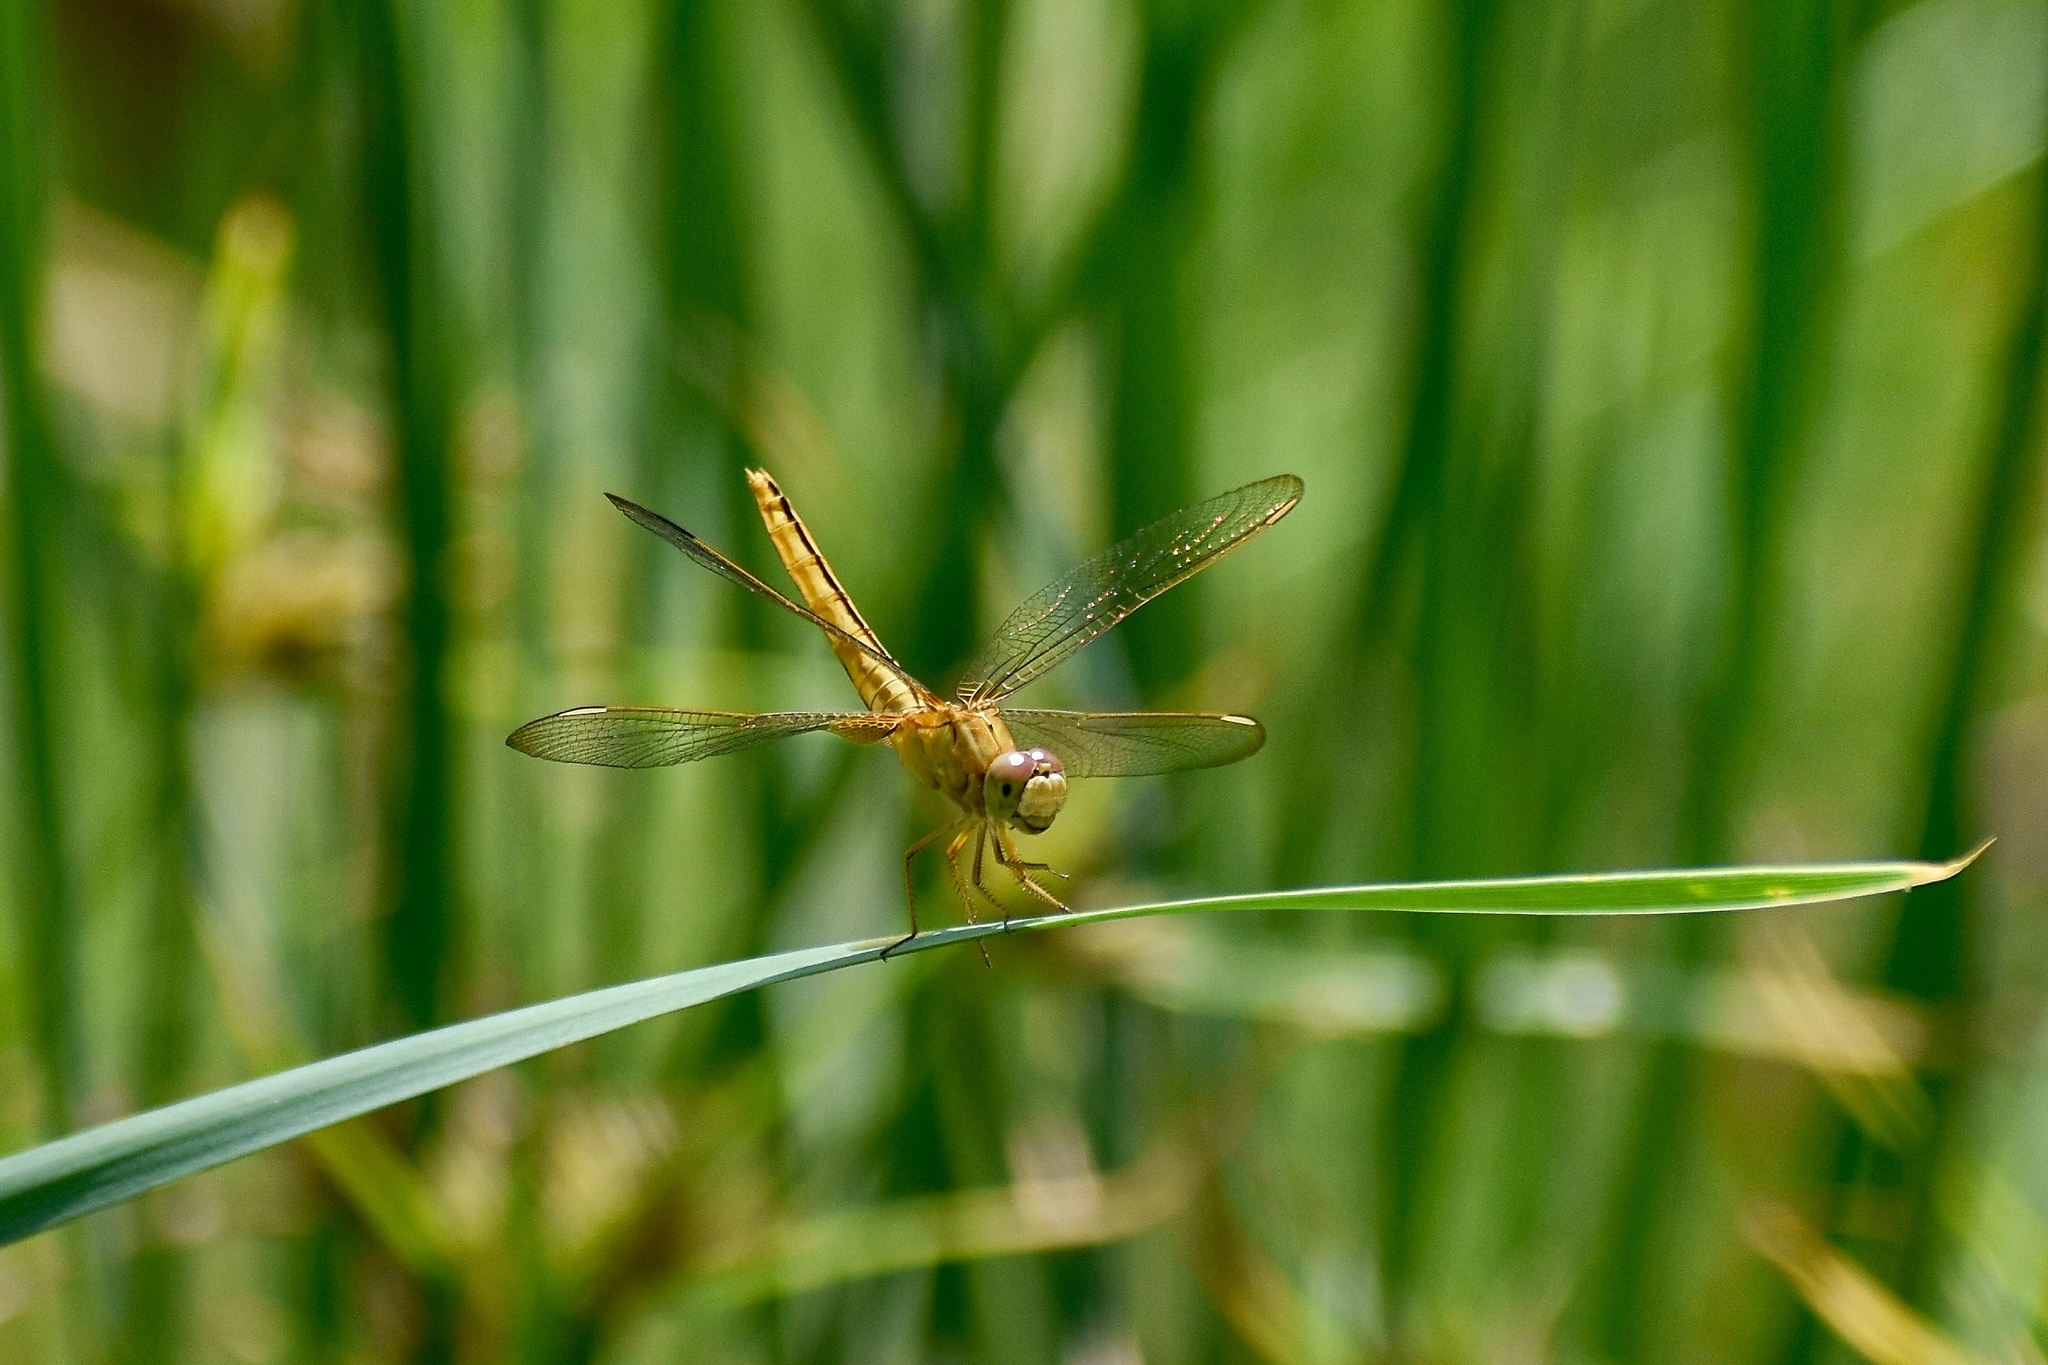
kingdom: Animalia
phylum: Arthropoda
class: Insecta
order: Odonata
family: Libellulidae
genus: Crocothemis
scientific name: Crocothemis servilia
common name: Scarlet skimmer
